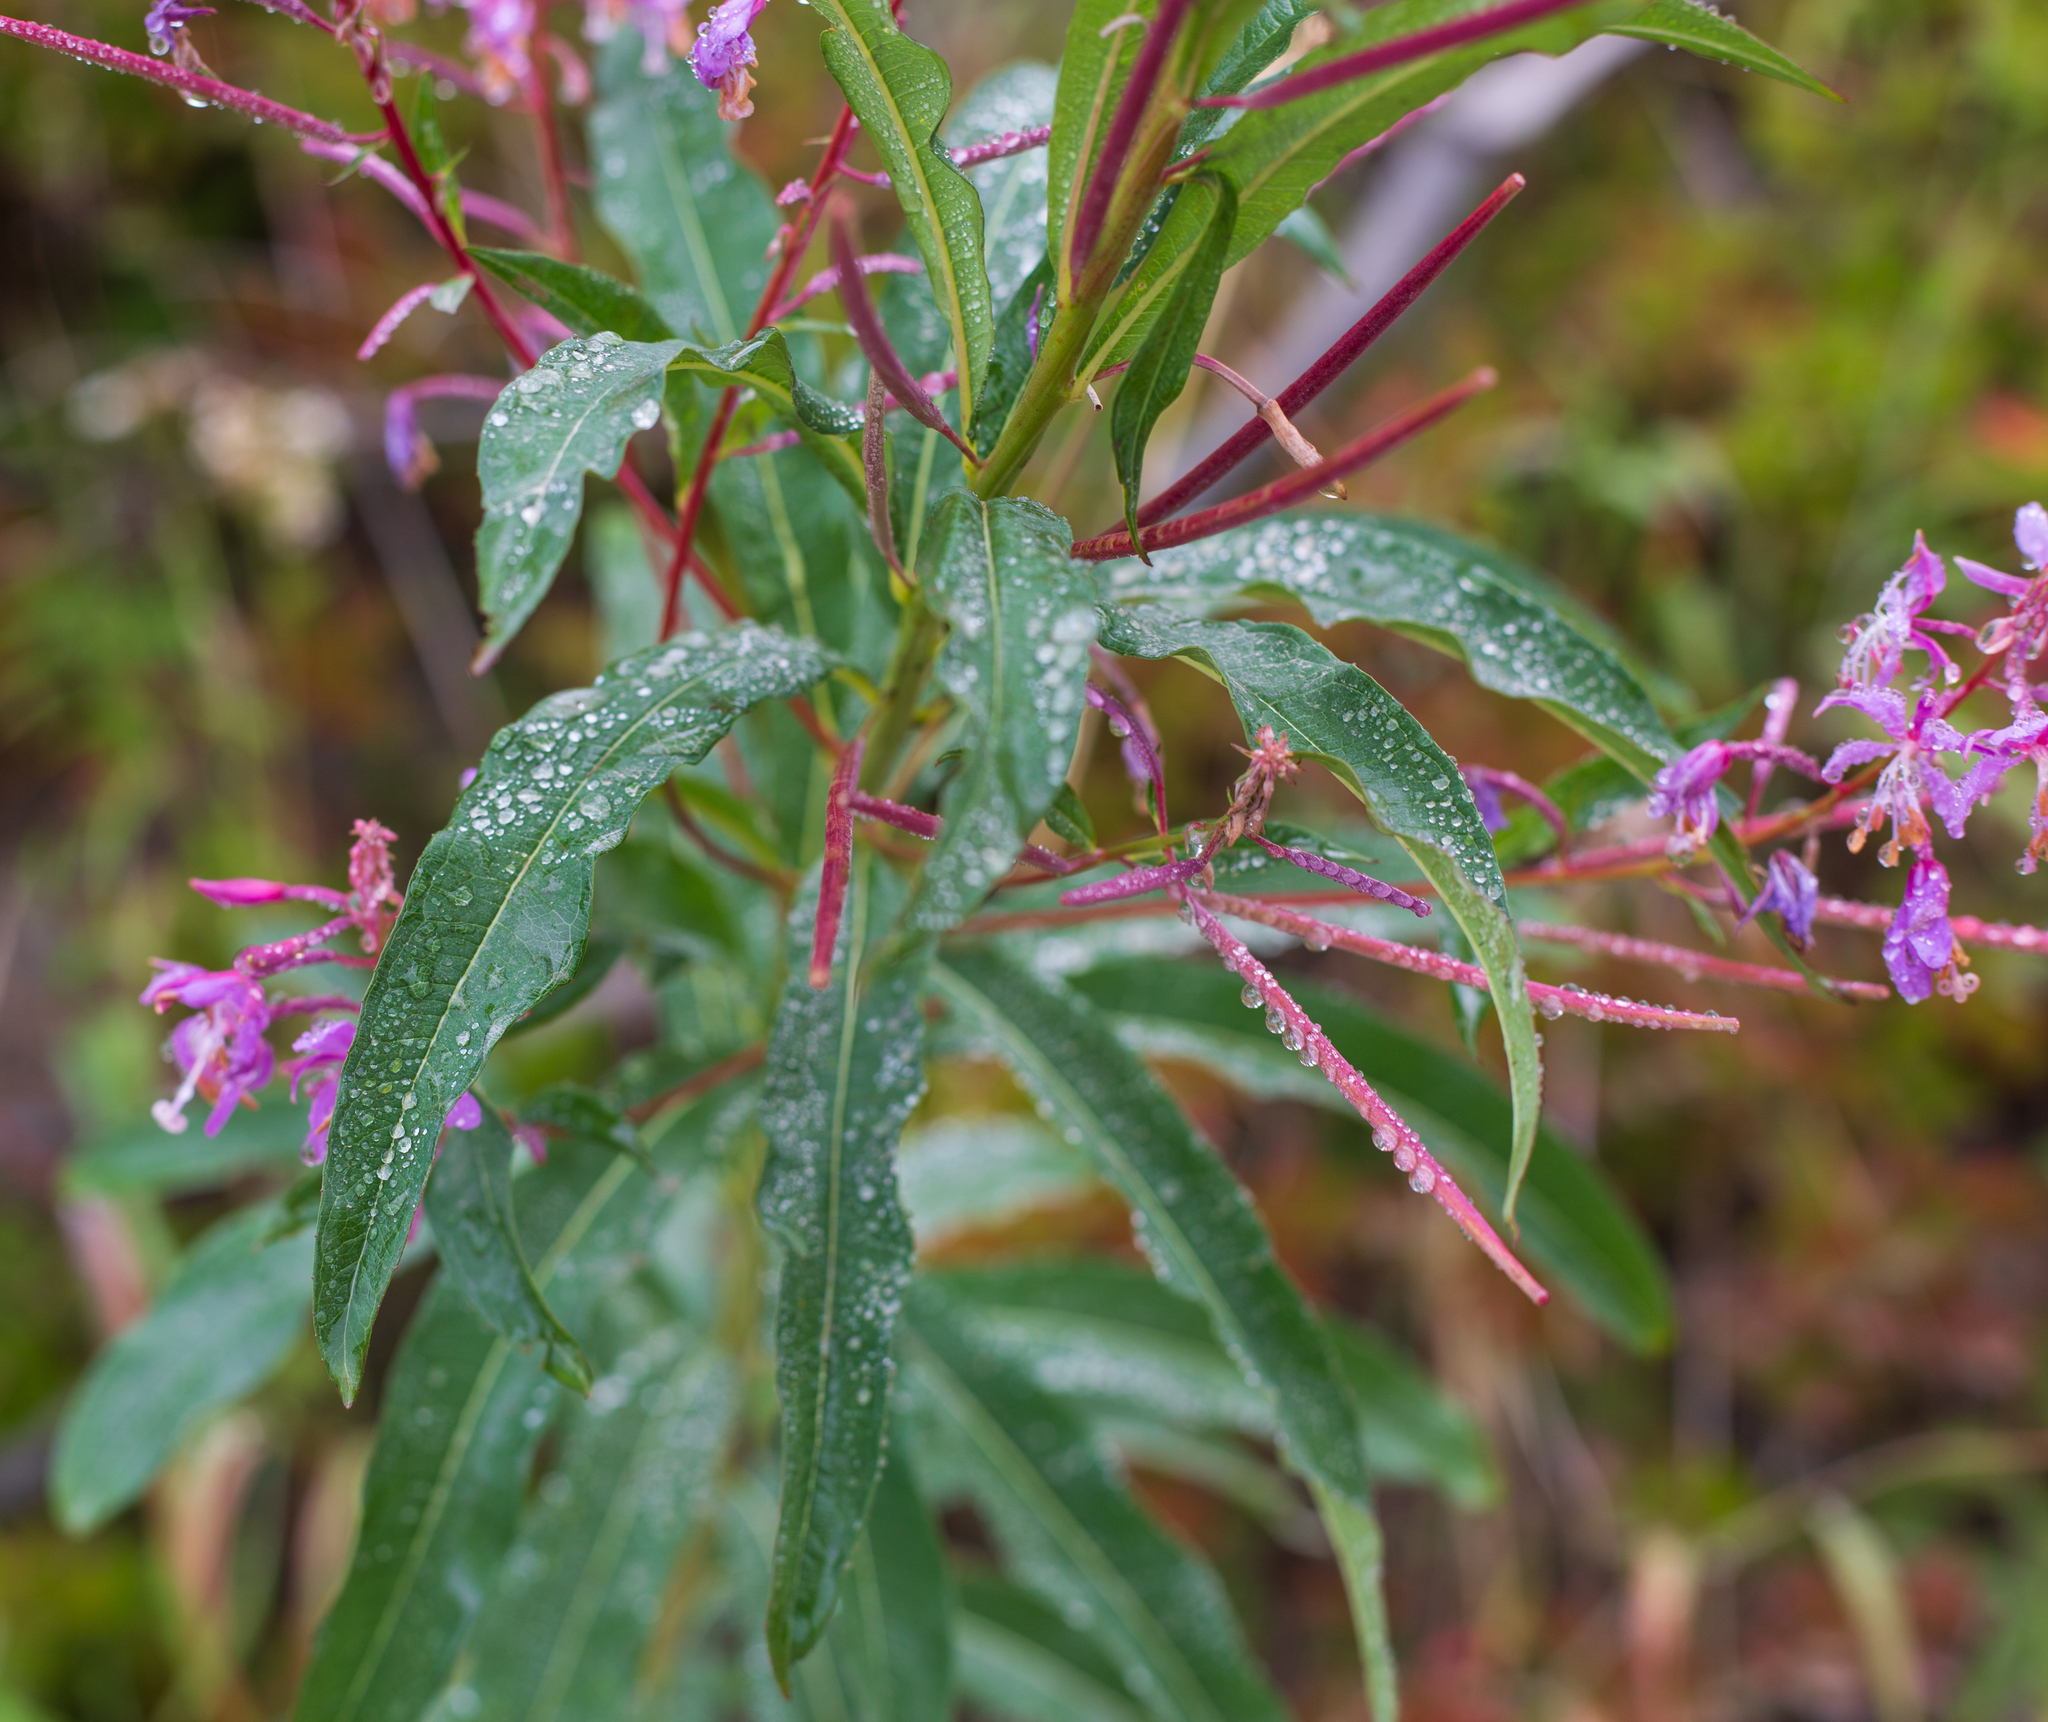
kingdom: Plantae
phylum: Tracheophyta
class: Magnoliopsida
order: Myrtales
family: Onagraceae
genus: Chamaenerion
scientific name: Chamaenerion angustifolium
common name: Fireweed
